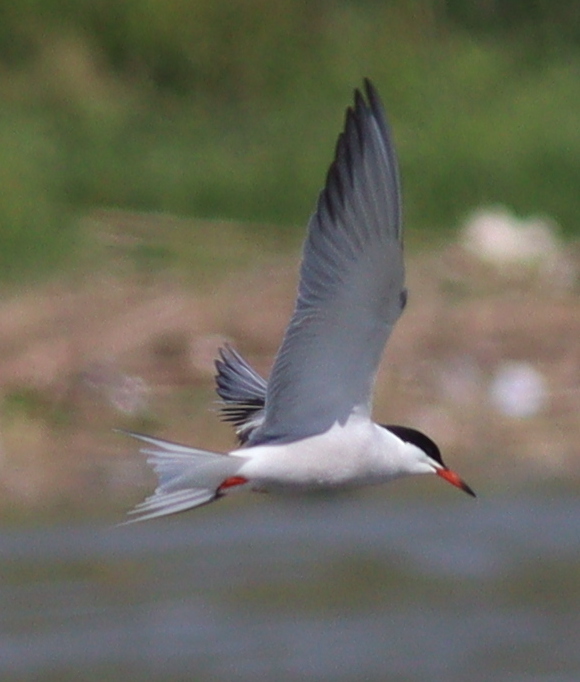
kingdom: Animalia
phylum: Chordata
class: Aves
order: Charadriiformes
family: Laridae
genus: Sterna
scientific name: Sterna hirundo
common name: Common tern
